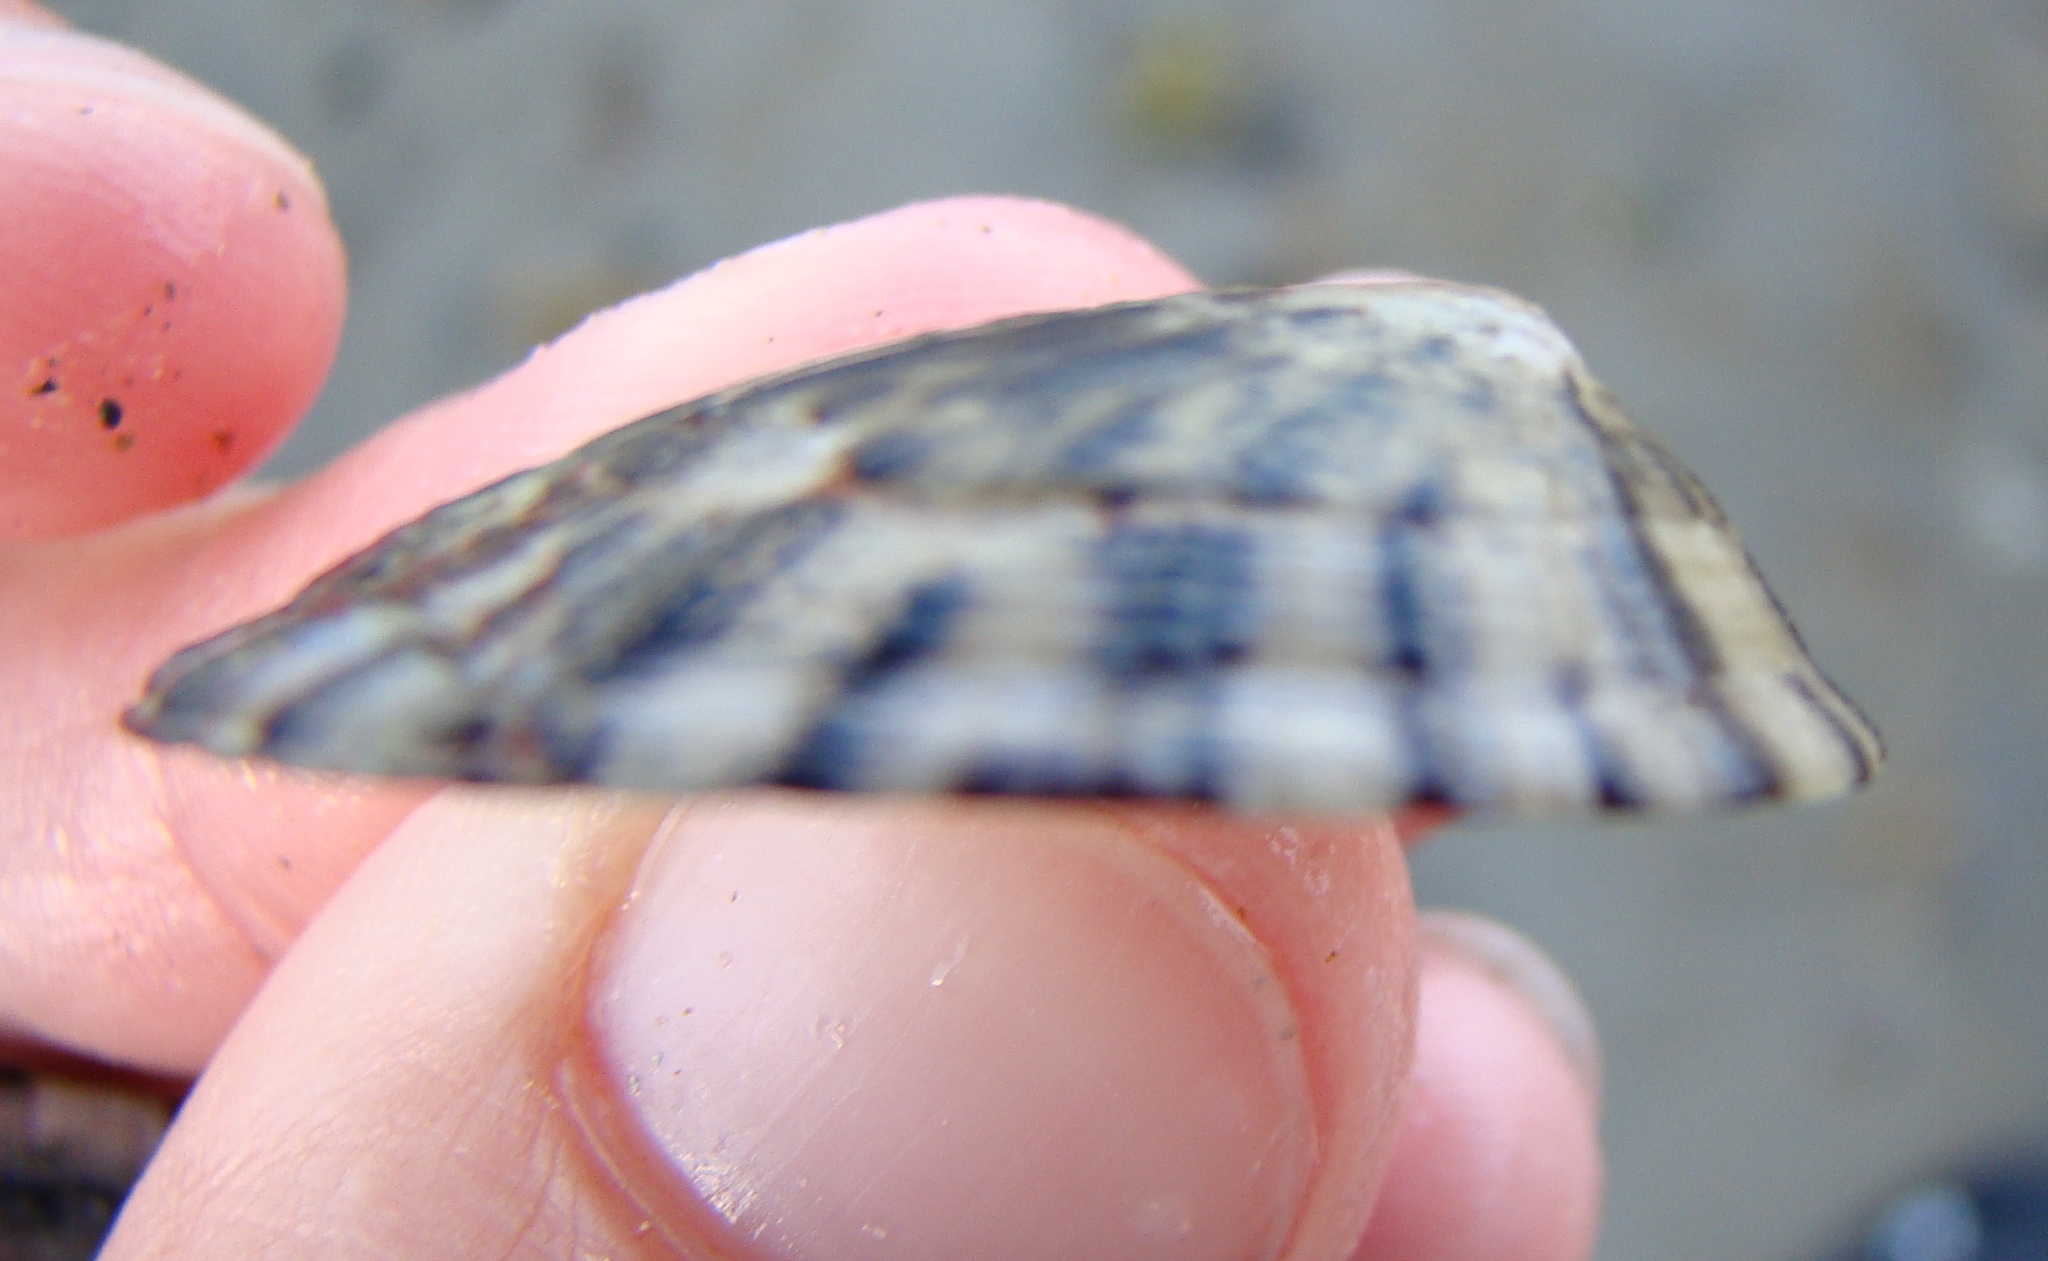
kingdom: Animalia
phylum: Mollusca
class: Gastropoda
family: Nacellidae
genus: Cellana
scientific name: Cellana radians
